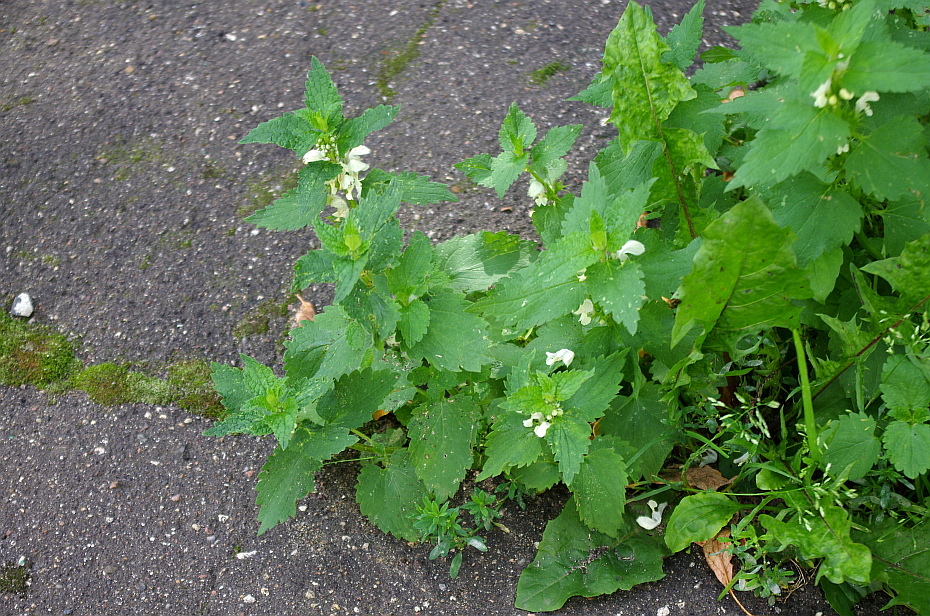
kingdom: Plantae
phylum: Tracheophyta
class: Magnoliopsida
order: Lamiales
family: Lamiaceae
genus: Lamium
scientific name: Lamium album
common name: White dead-nettle
